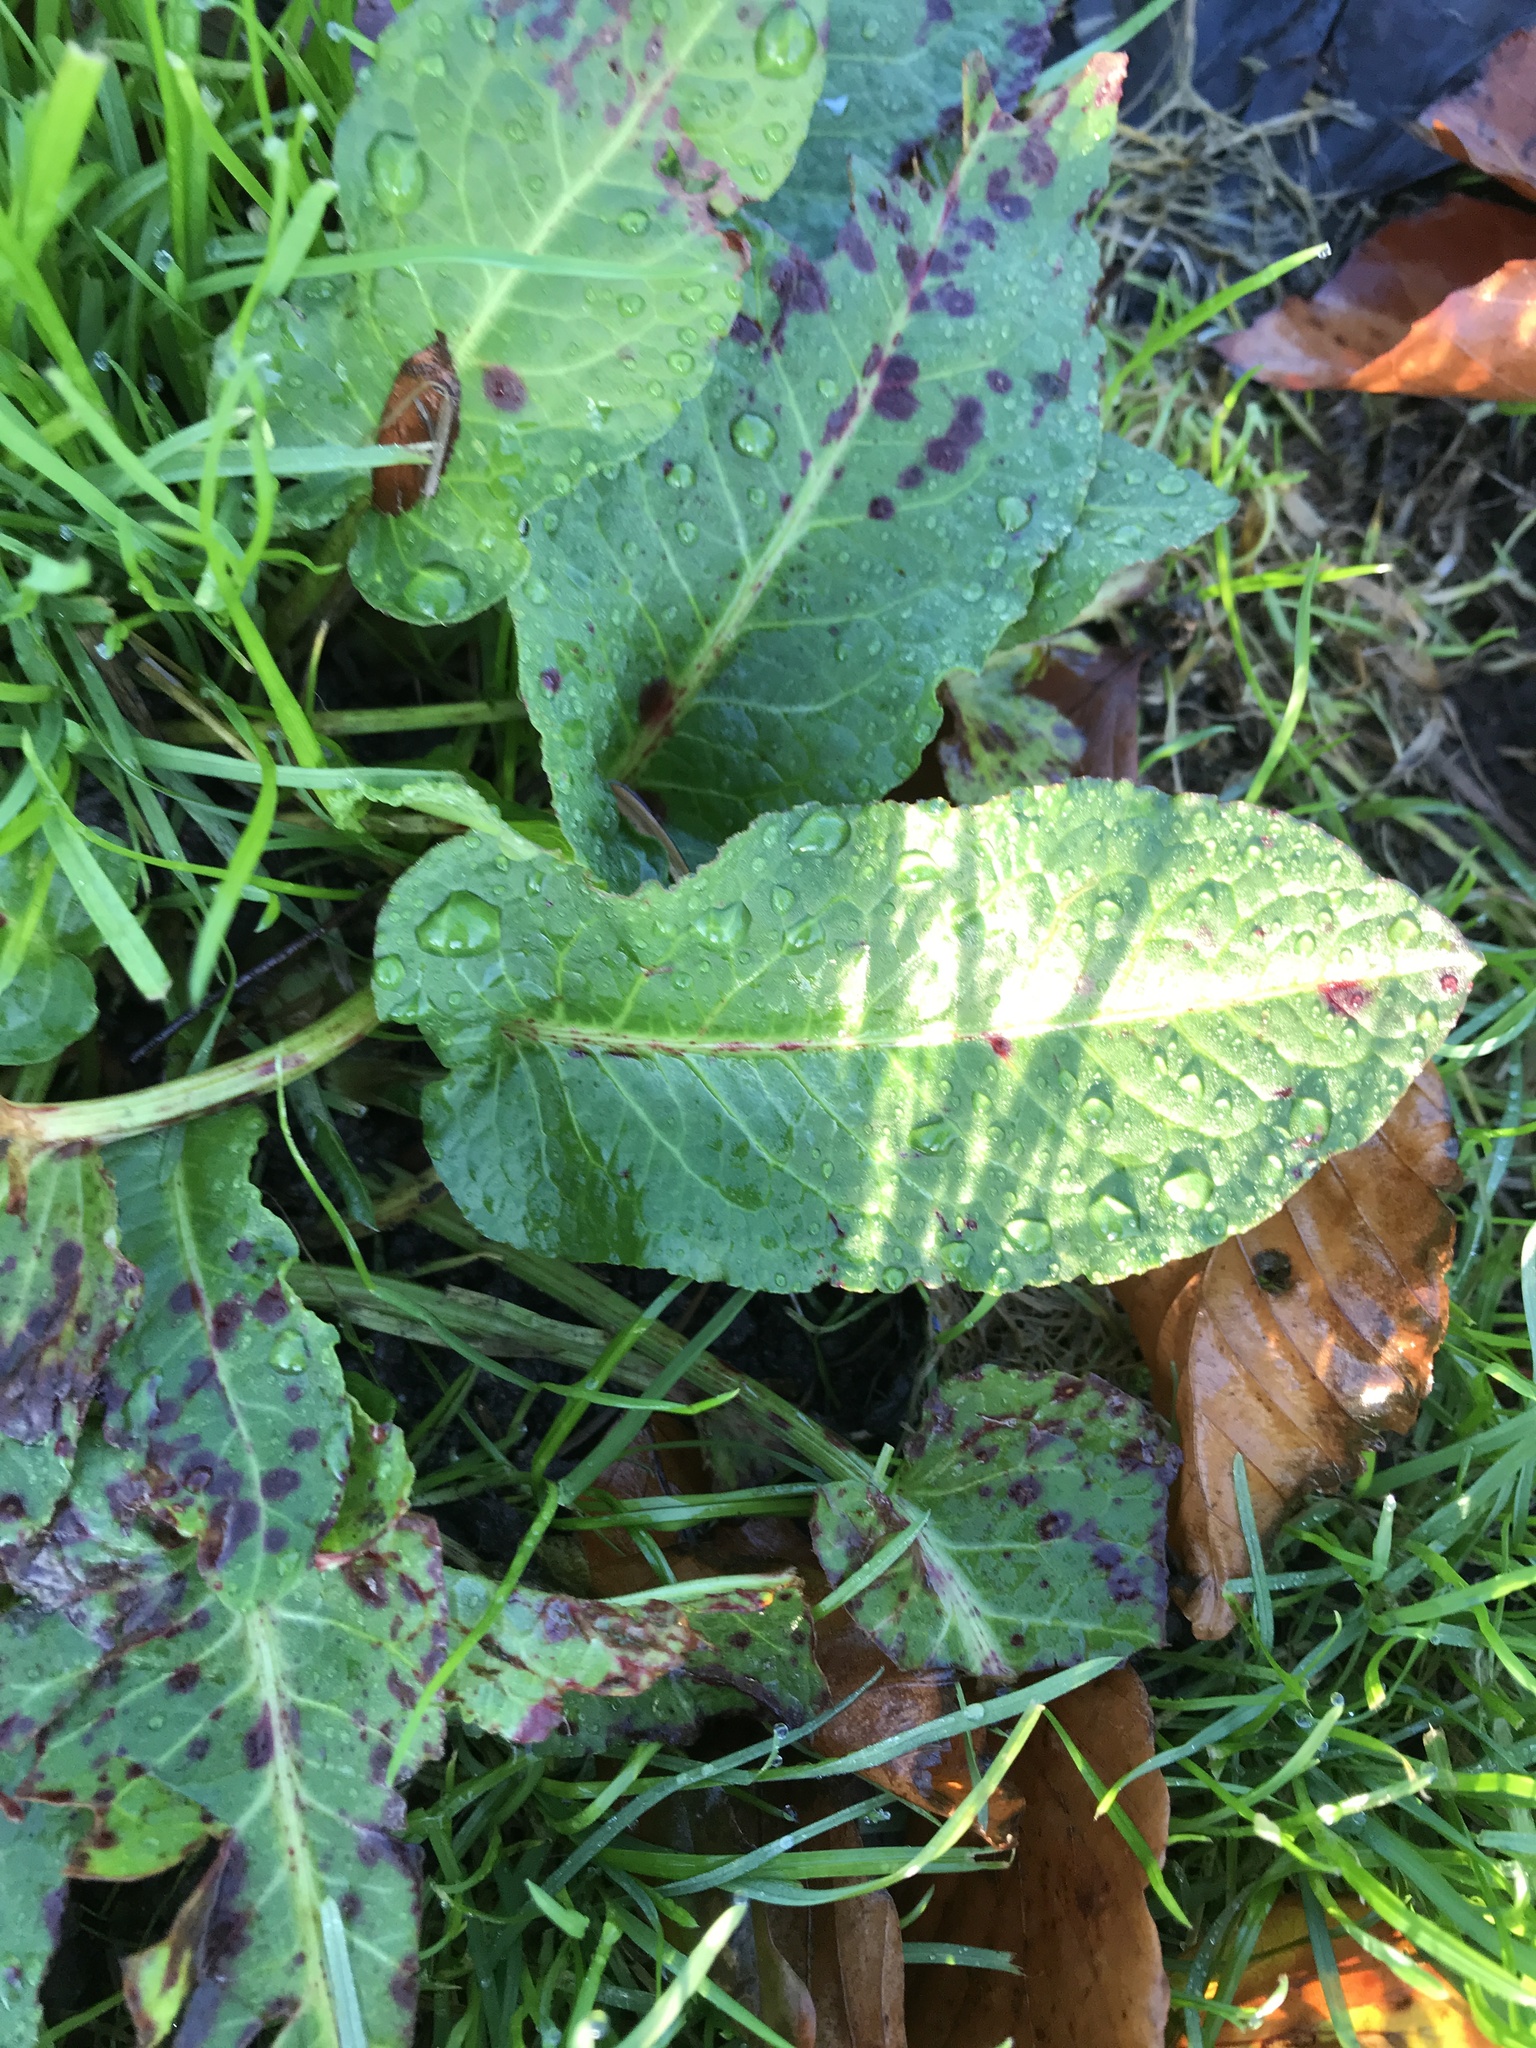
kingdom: Plantae
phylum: Tracheophyta
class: Magnoliopsida
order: Caryophyllales
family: Polygonaceae
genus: Rumex
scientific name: Rumex obtusifolius
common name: Bitter dock
